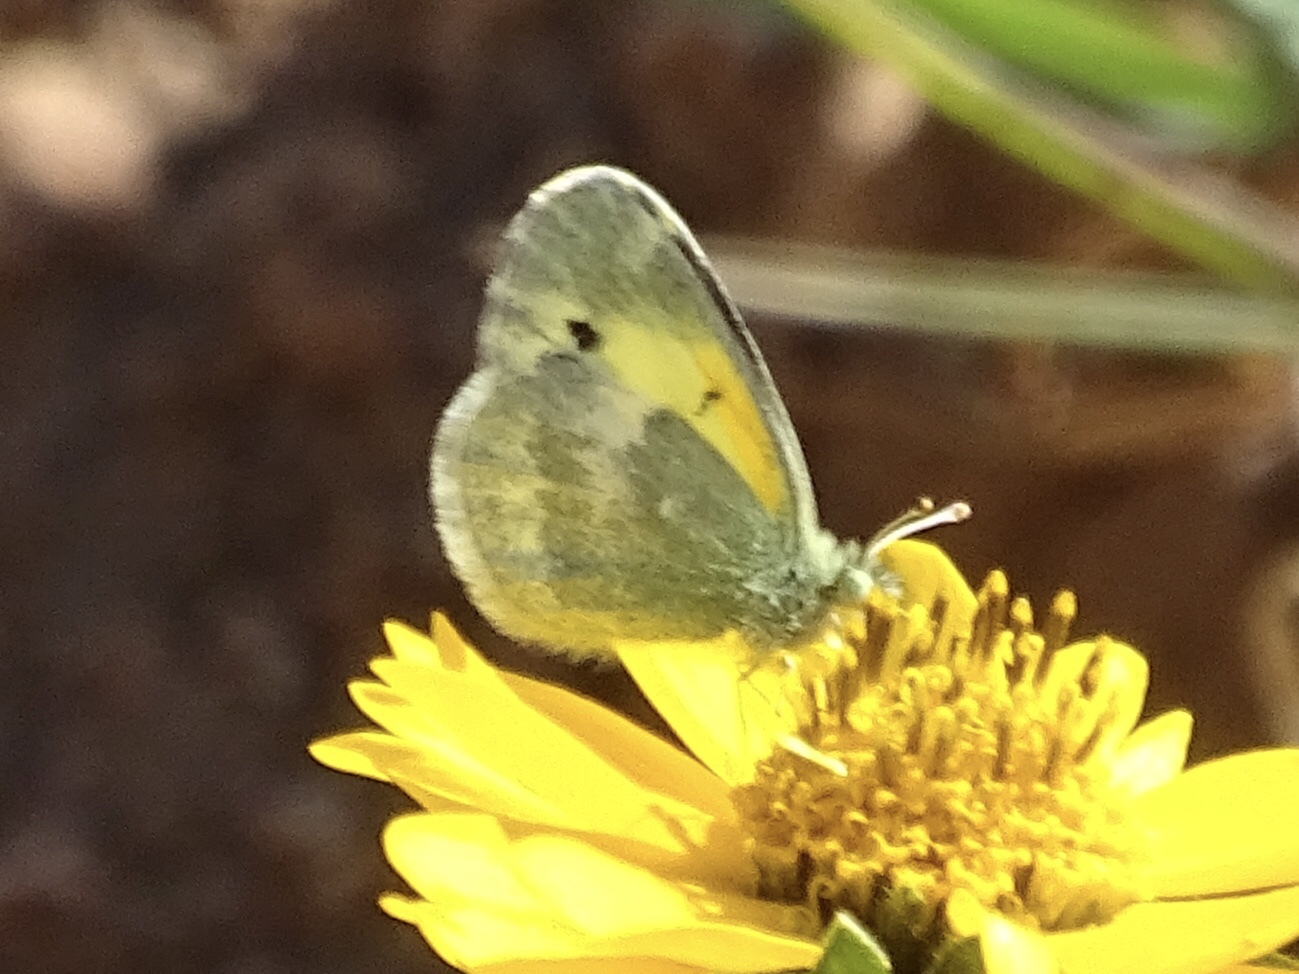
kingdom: Animalia
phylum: Arthropoda
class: Insecta
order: Lepidoptera
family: Pieridae
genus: Nathalis
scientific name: Nathalis iole
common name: Dainty sulphur
